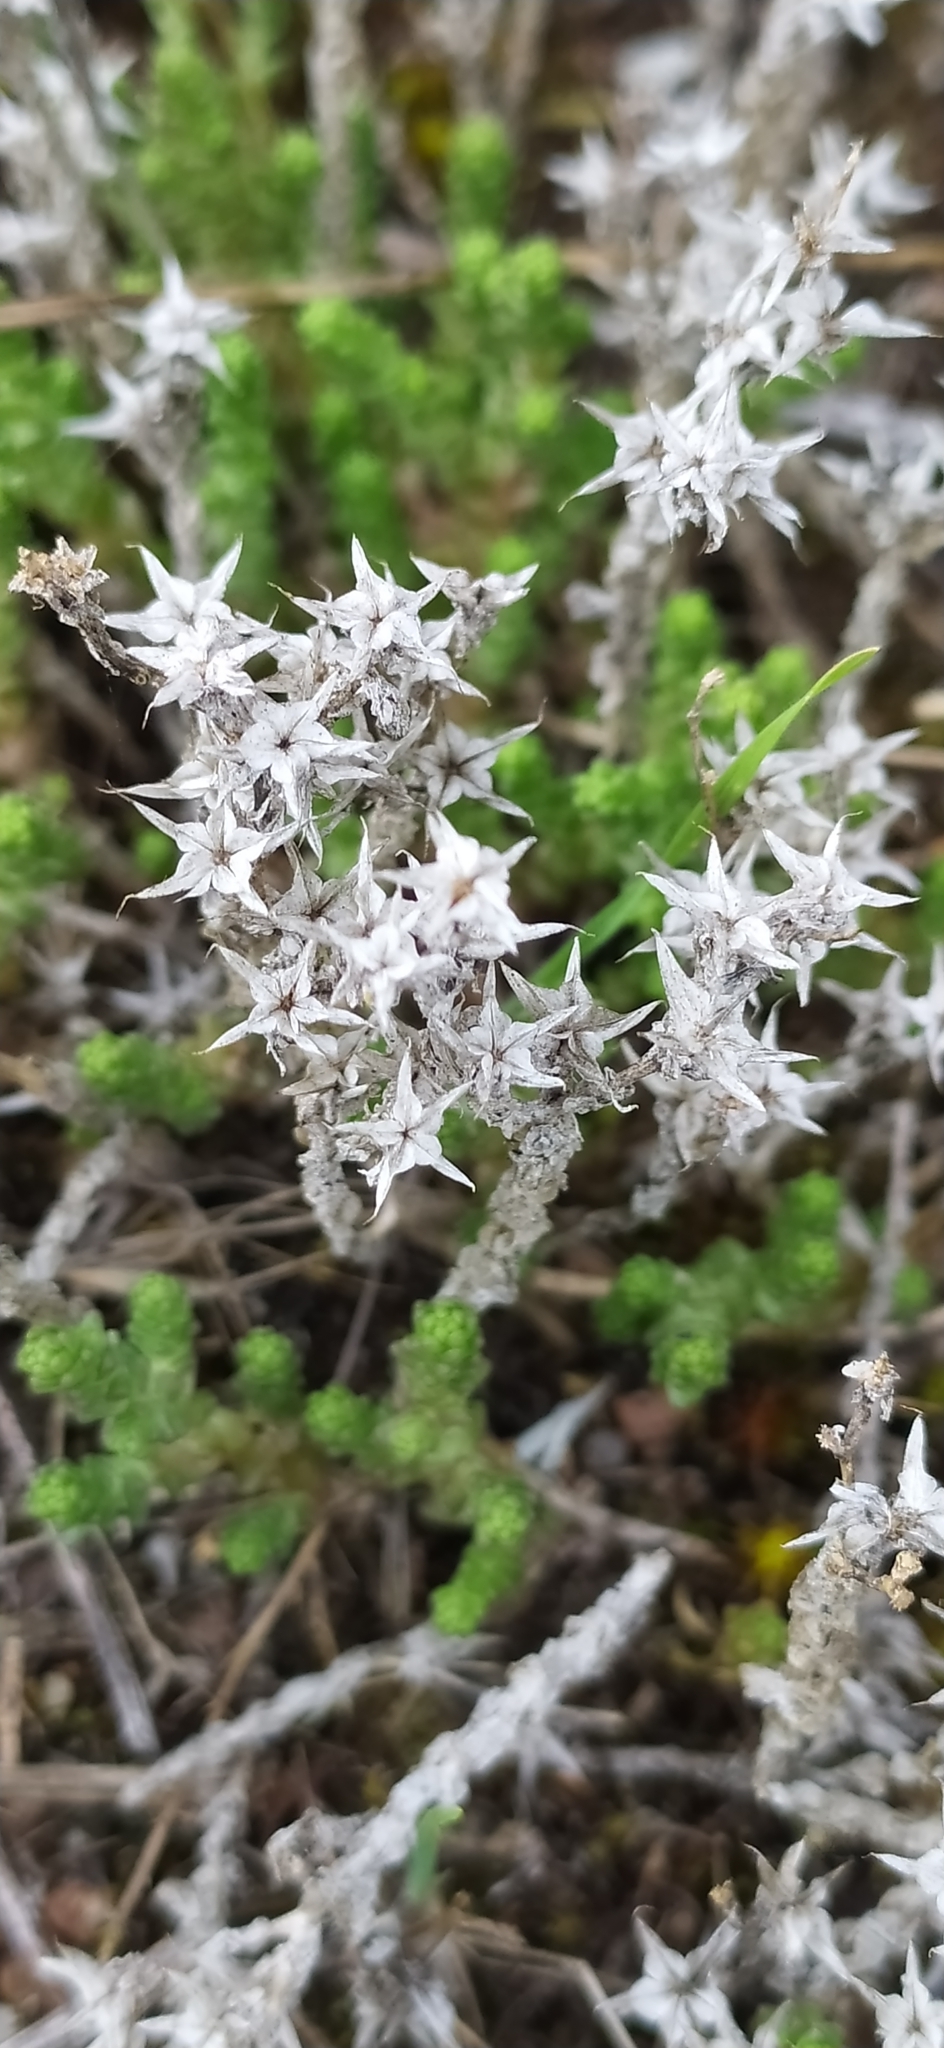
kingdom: Plantae
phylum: Tracheophyta
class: Magnoliopsida
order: Saxifragales
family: Crassulaceae
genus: Sedum
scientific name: Sedum acre
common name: Biting stonecrop
